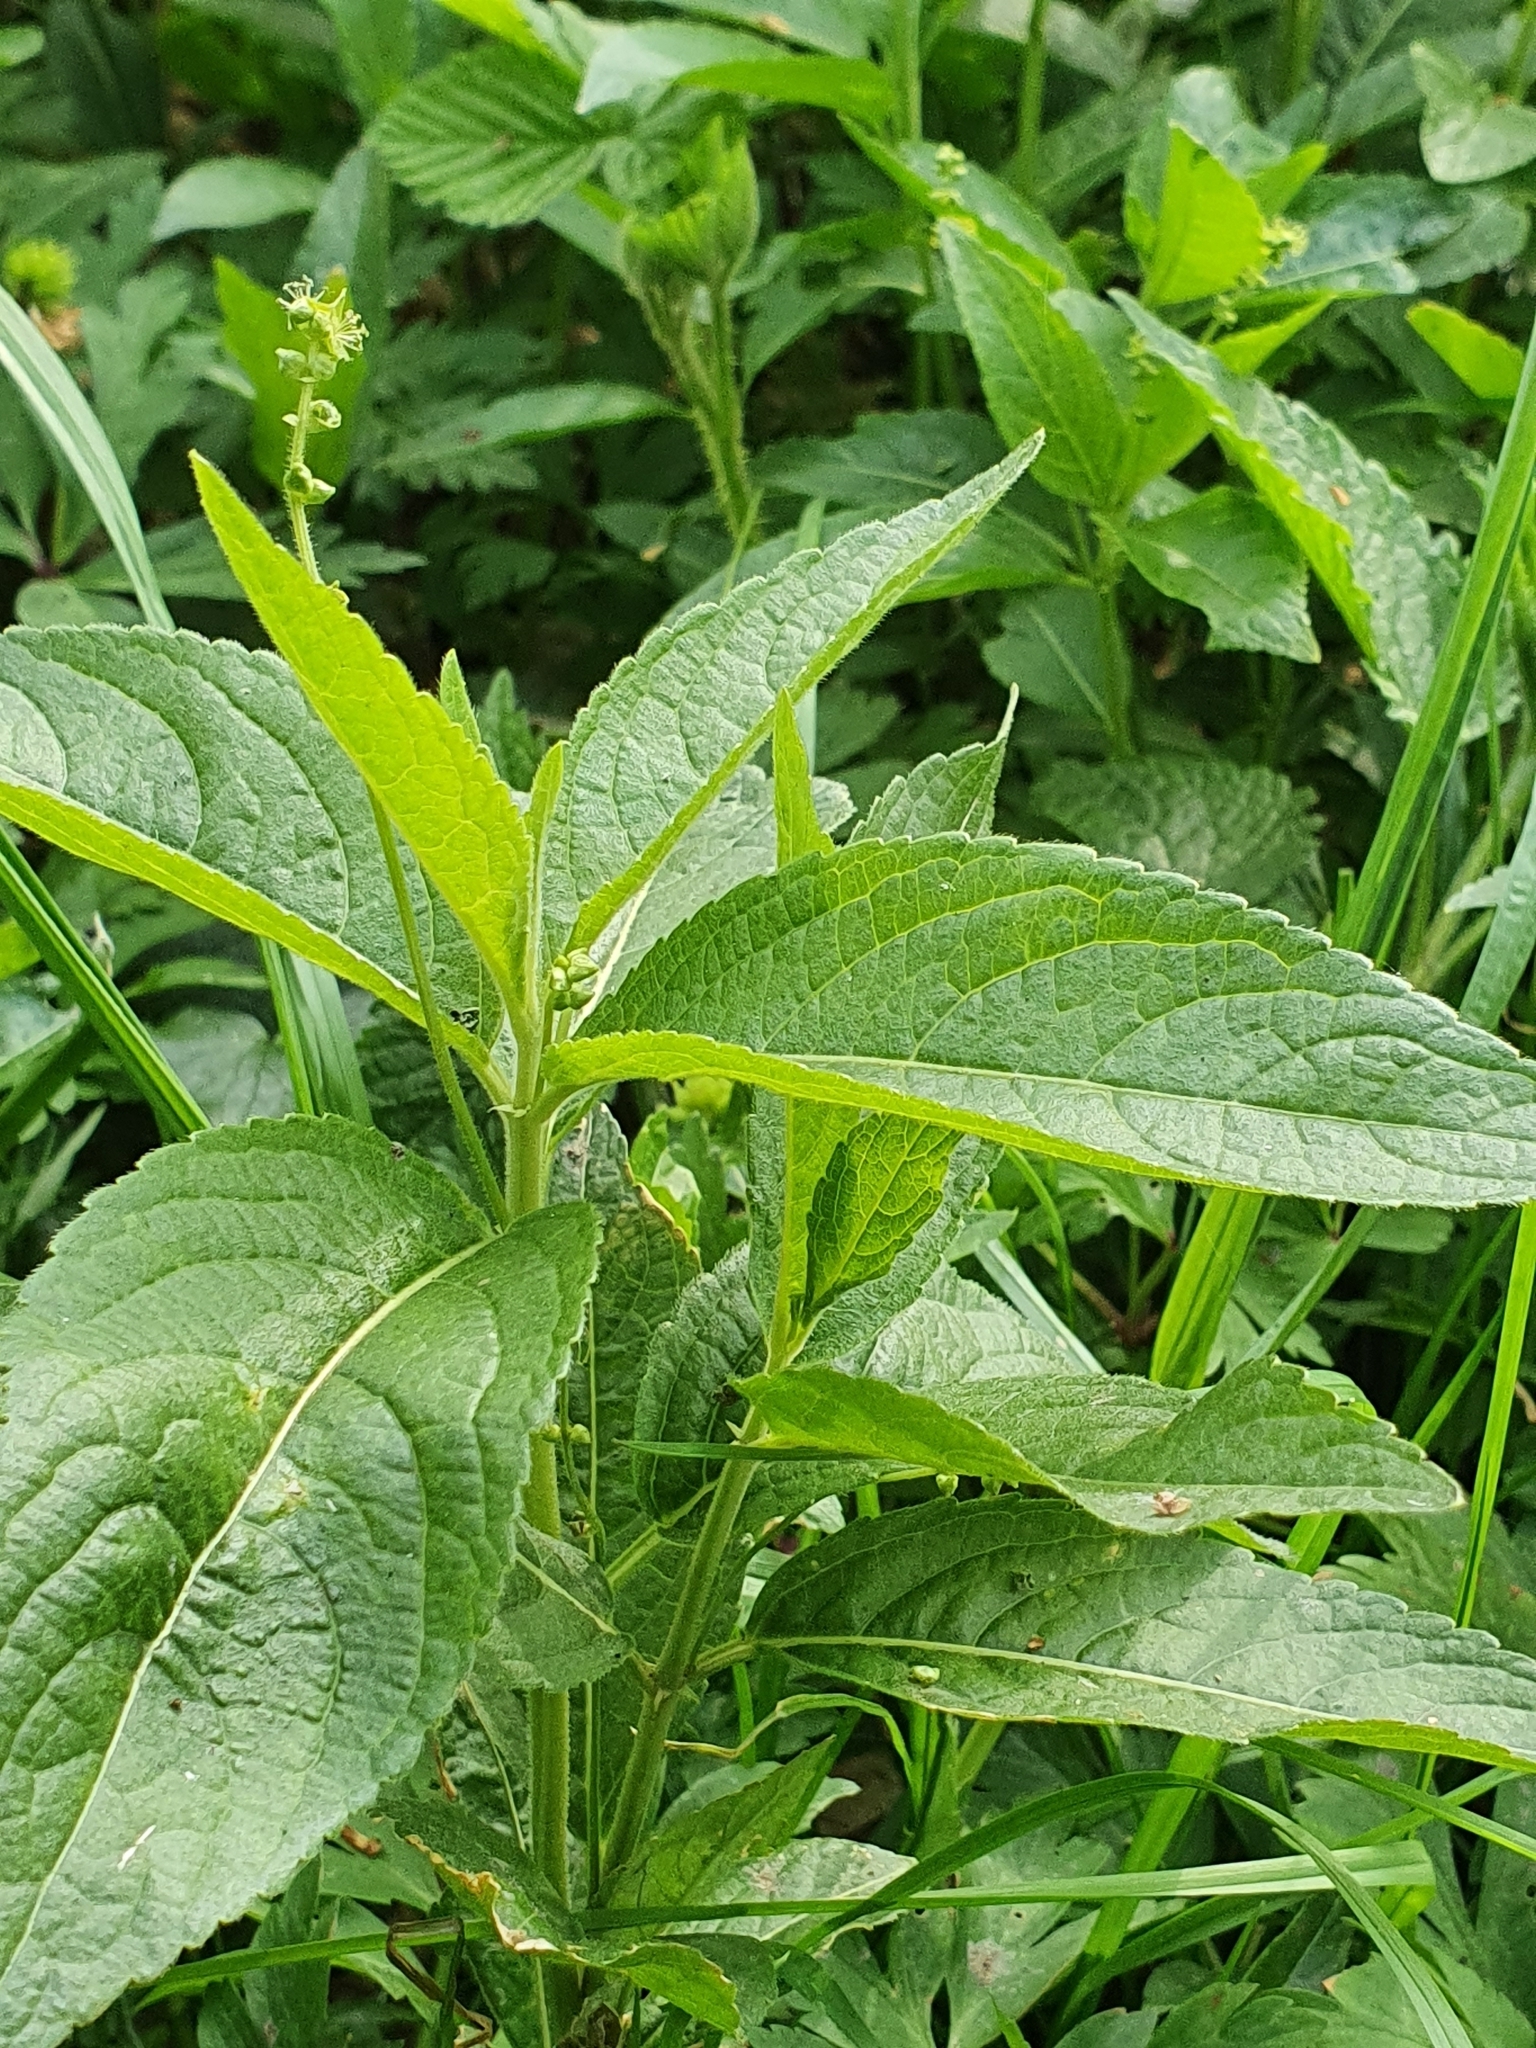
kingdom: Plantae
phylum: Tracheophyta
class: Magnoliopsida
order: Malpighiales
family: Euphorbiaceae
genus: Mercurialis
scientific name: Mercurialis perennis
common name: Dog mercury
